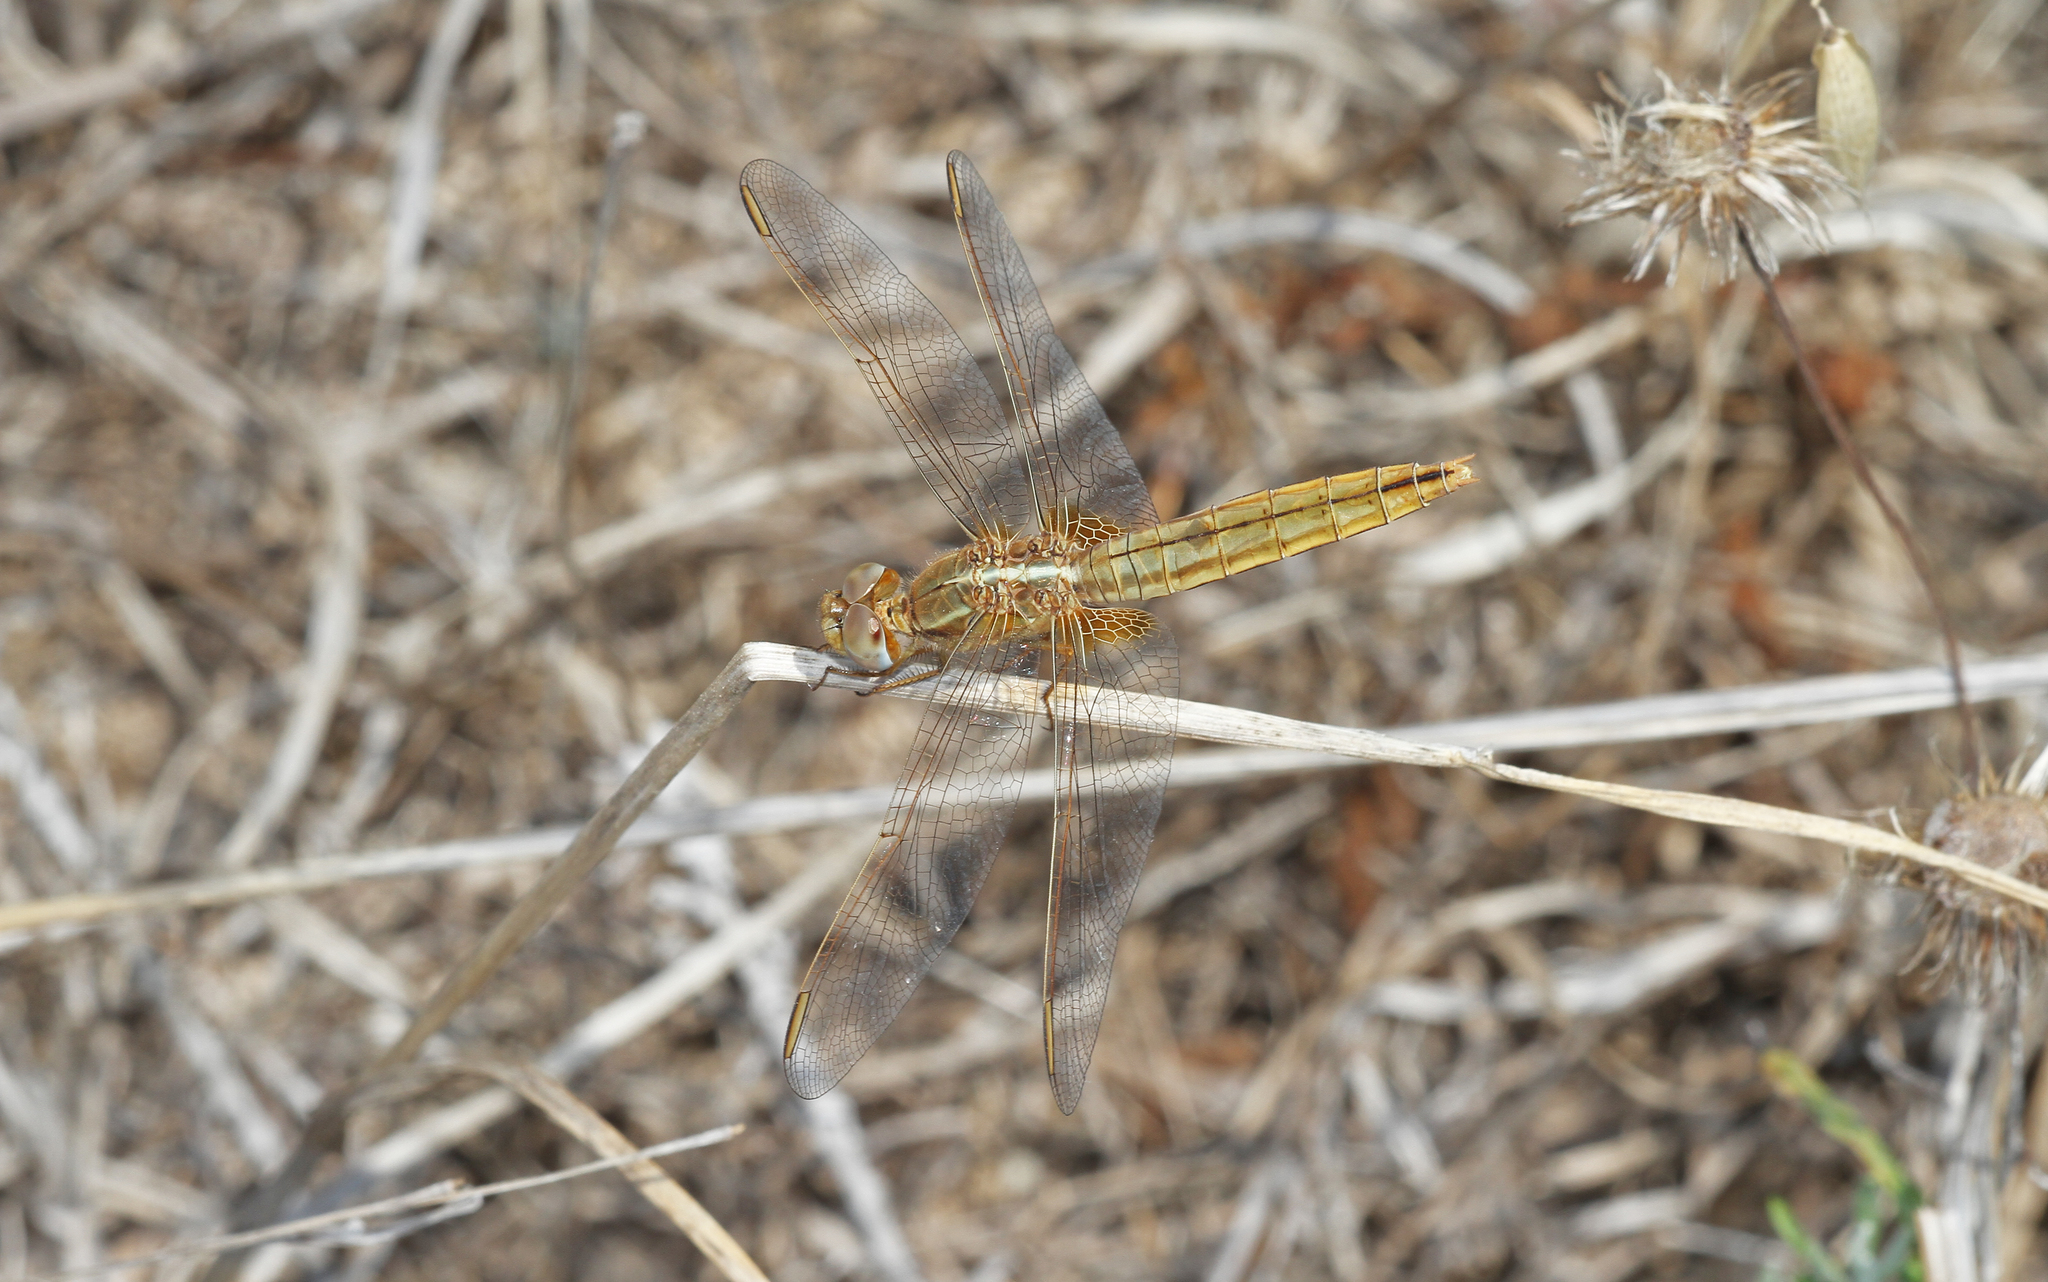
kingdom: Animalia
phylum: Arthropoda
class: Insecta
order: Odonata
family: Libellulidae
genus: Crocothemis
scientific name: Crocothemis erythraea
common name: Scarlet dragonfly
